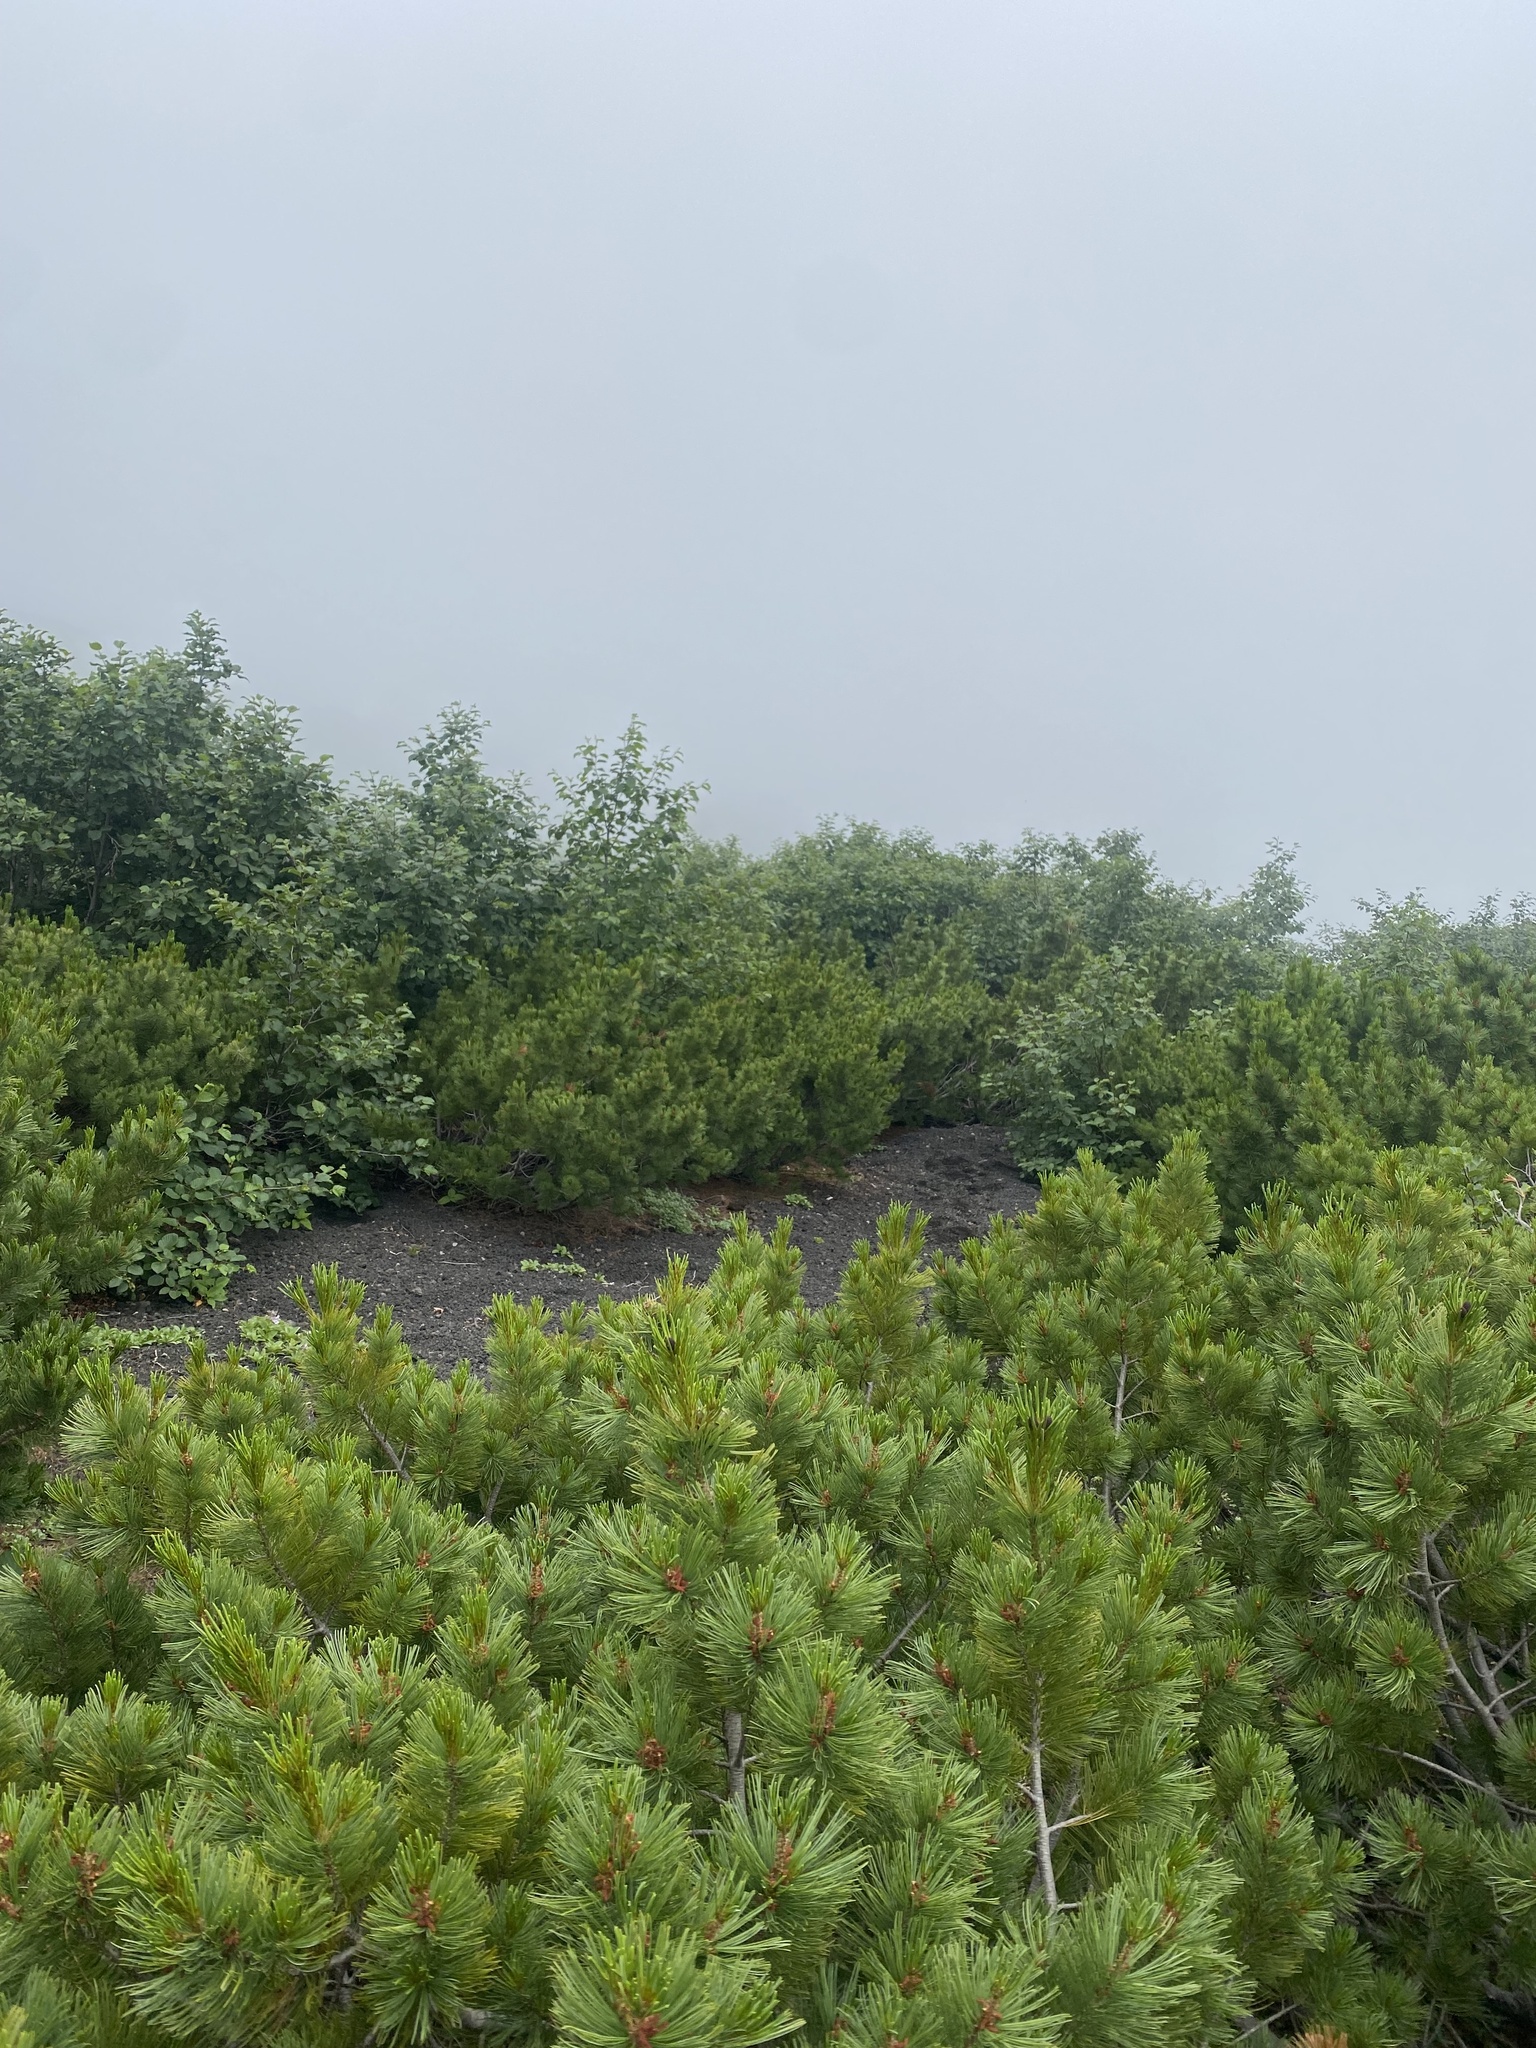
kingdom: Plantae
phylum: Tracheophyta
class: Pinopsida
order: Pinales
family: Pinaceae
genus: Pinus
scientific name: Pinus pumila
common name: Dwarf siberian pine
